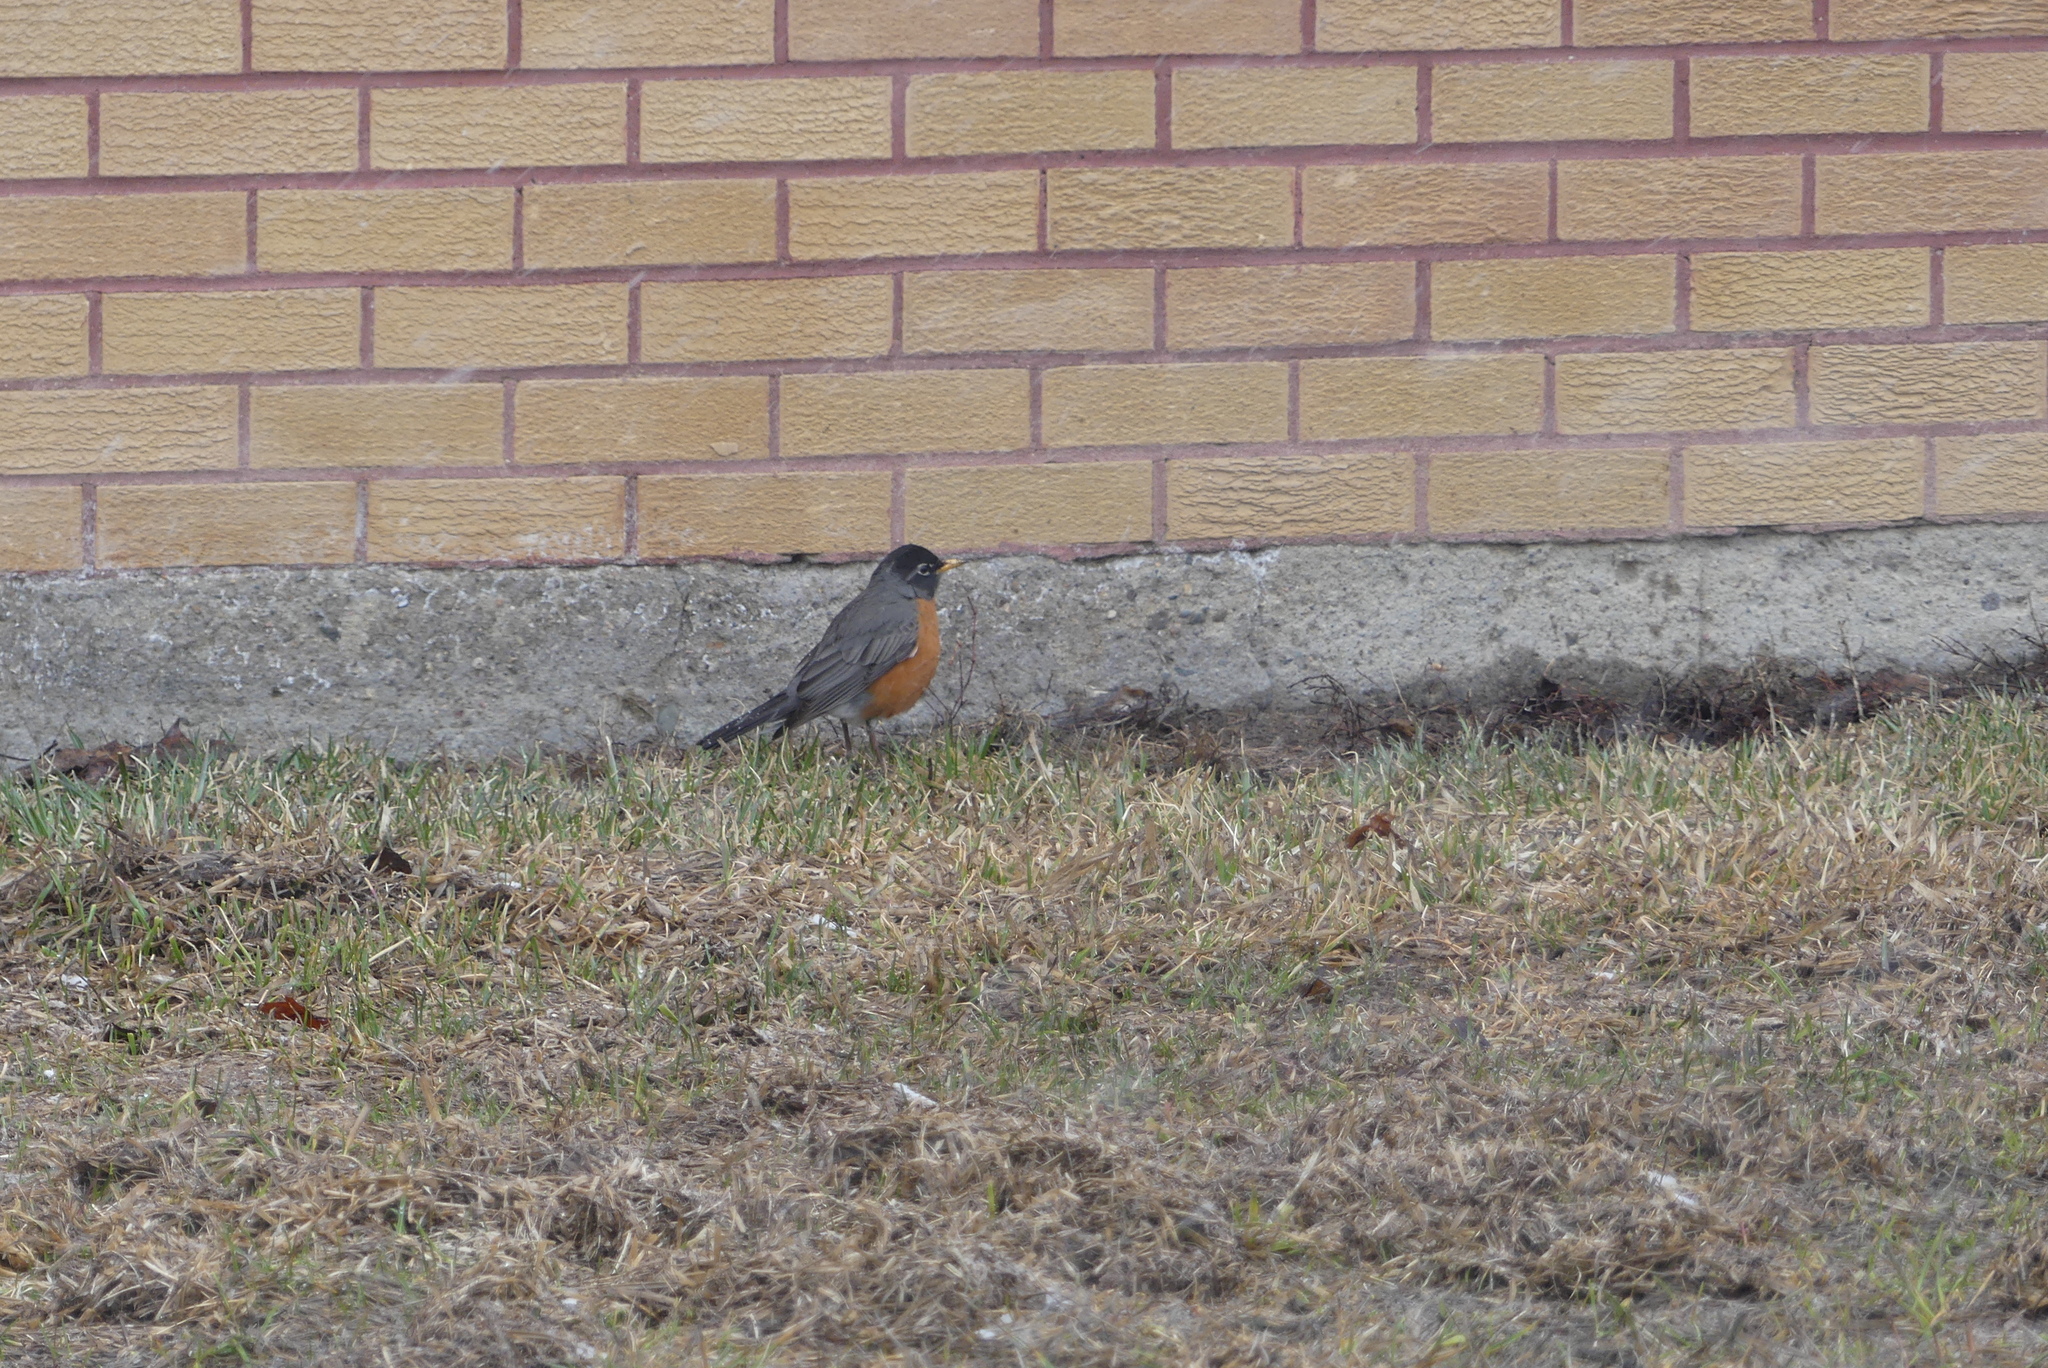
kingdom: Animalia
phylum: Chordata
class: Aves
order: Passeriformes
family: Turdidae
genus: Turdus
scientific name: Turdus migratorius
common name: American robin
